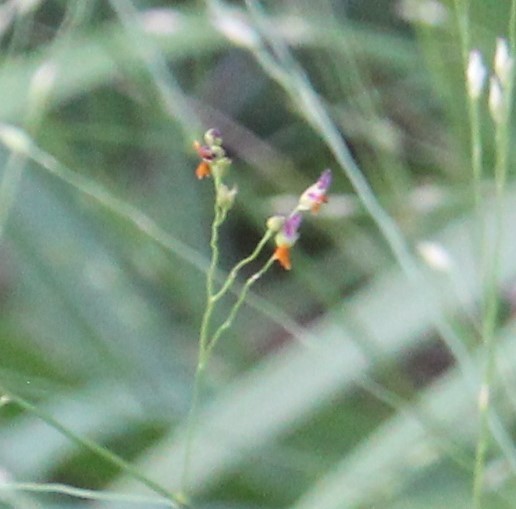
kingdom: Plantae
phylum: Tracheophyta
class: Liliopsida
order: Poales
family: Poaceae
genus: Panicum
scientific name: Panicum virgatum
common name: Switchgrass
